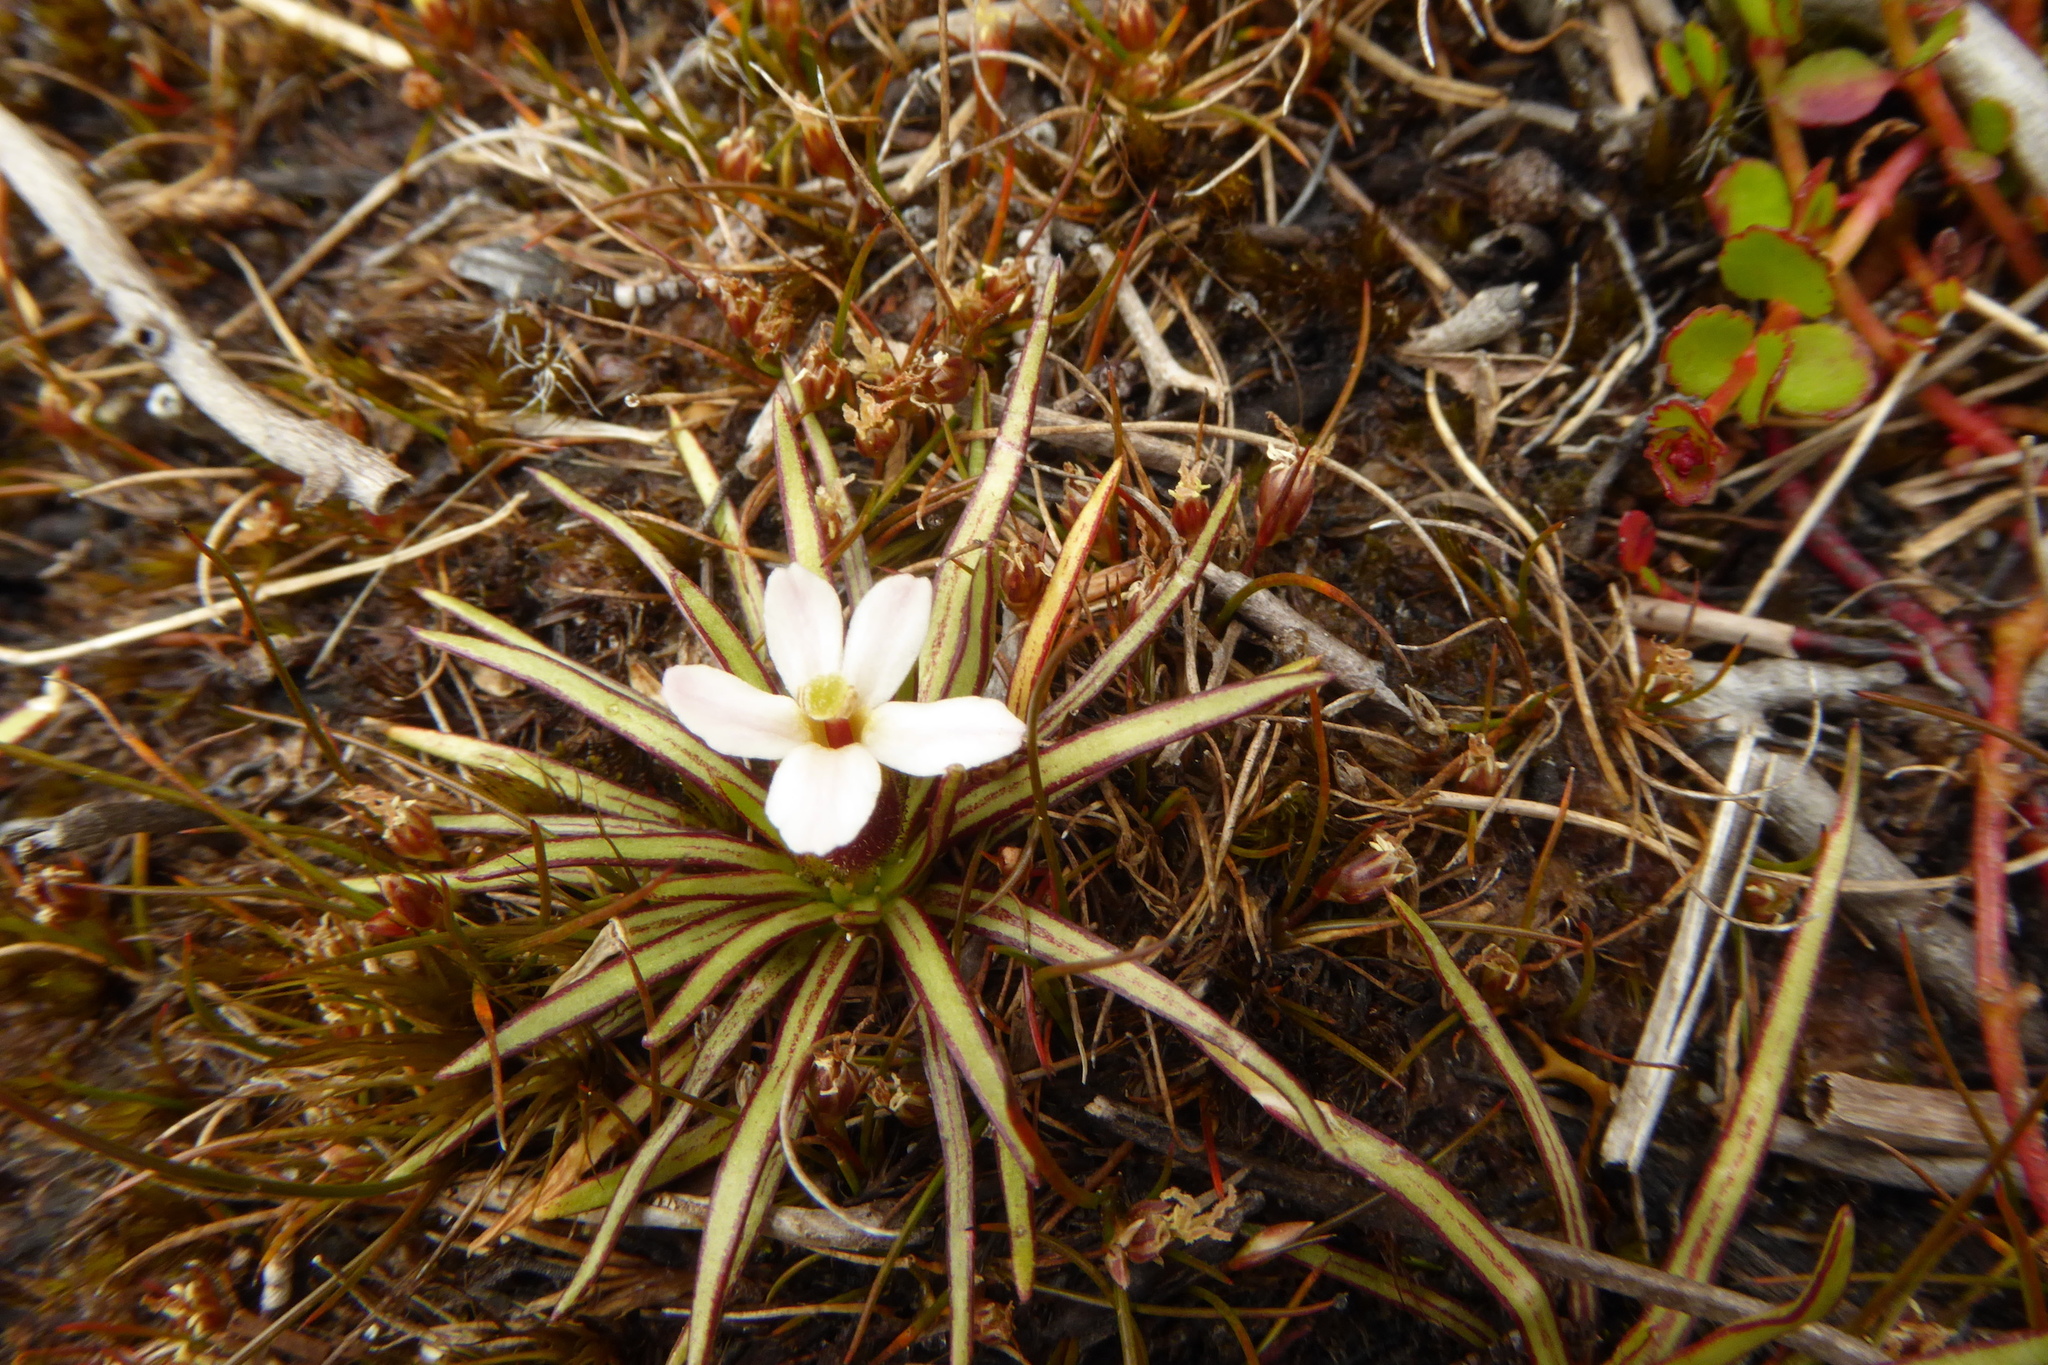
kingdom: Plantae
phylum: Tracheophyta
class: Magnoliopsida
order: Asterales
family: Stylidiaceae
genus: Oreostylidium
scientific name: Oreostylidium subulatum
